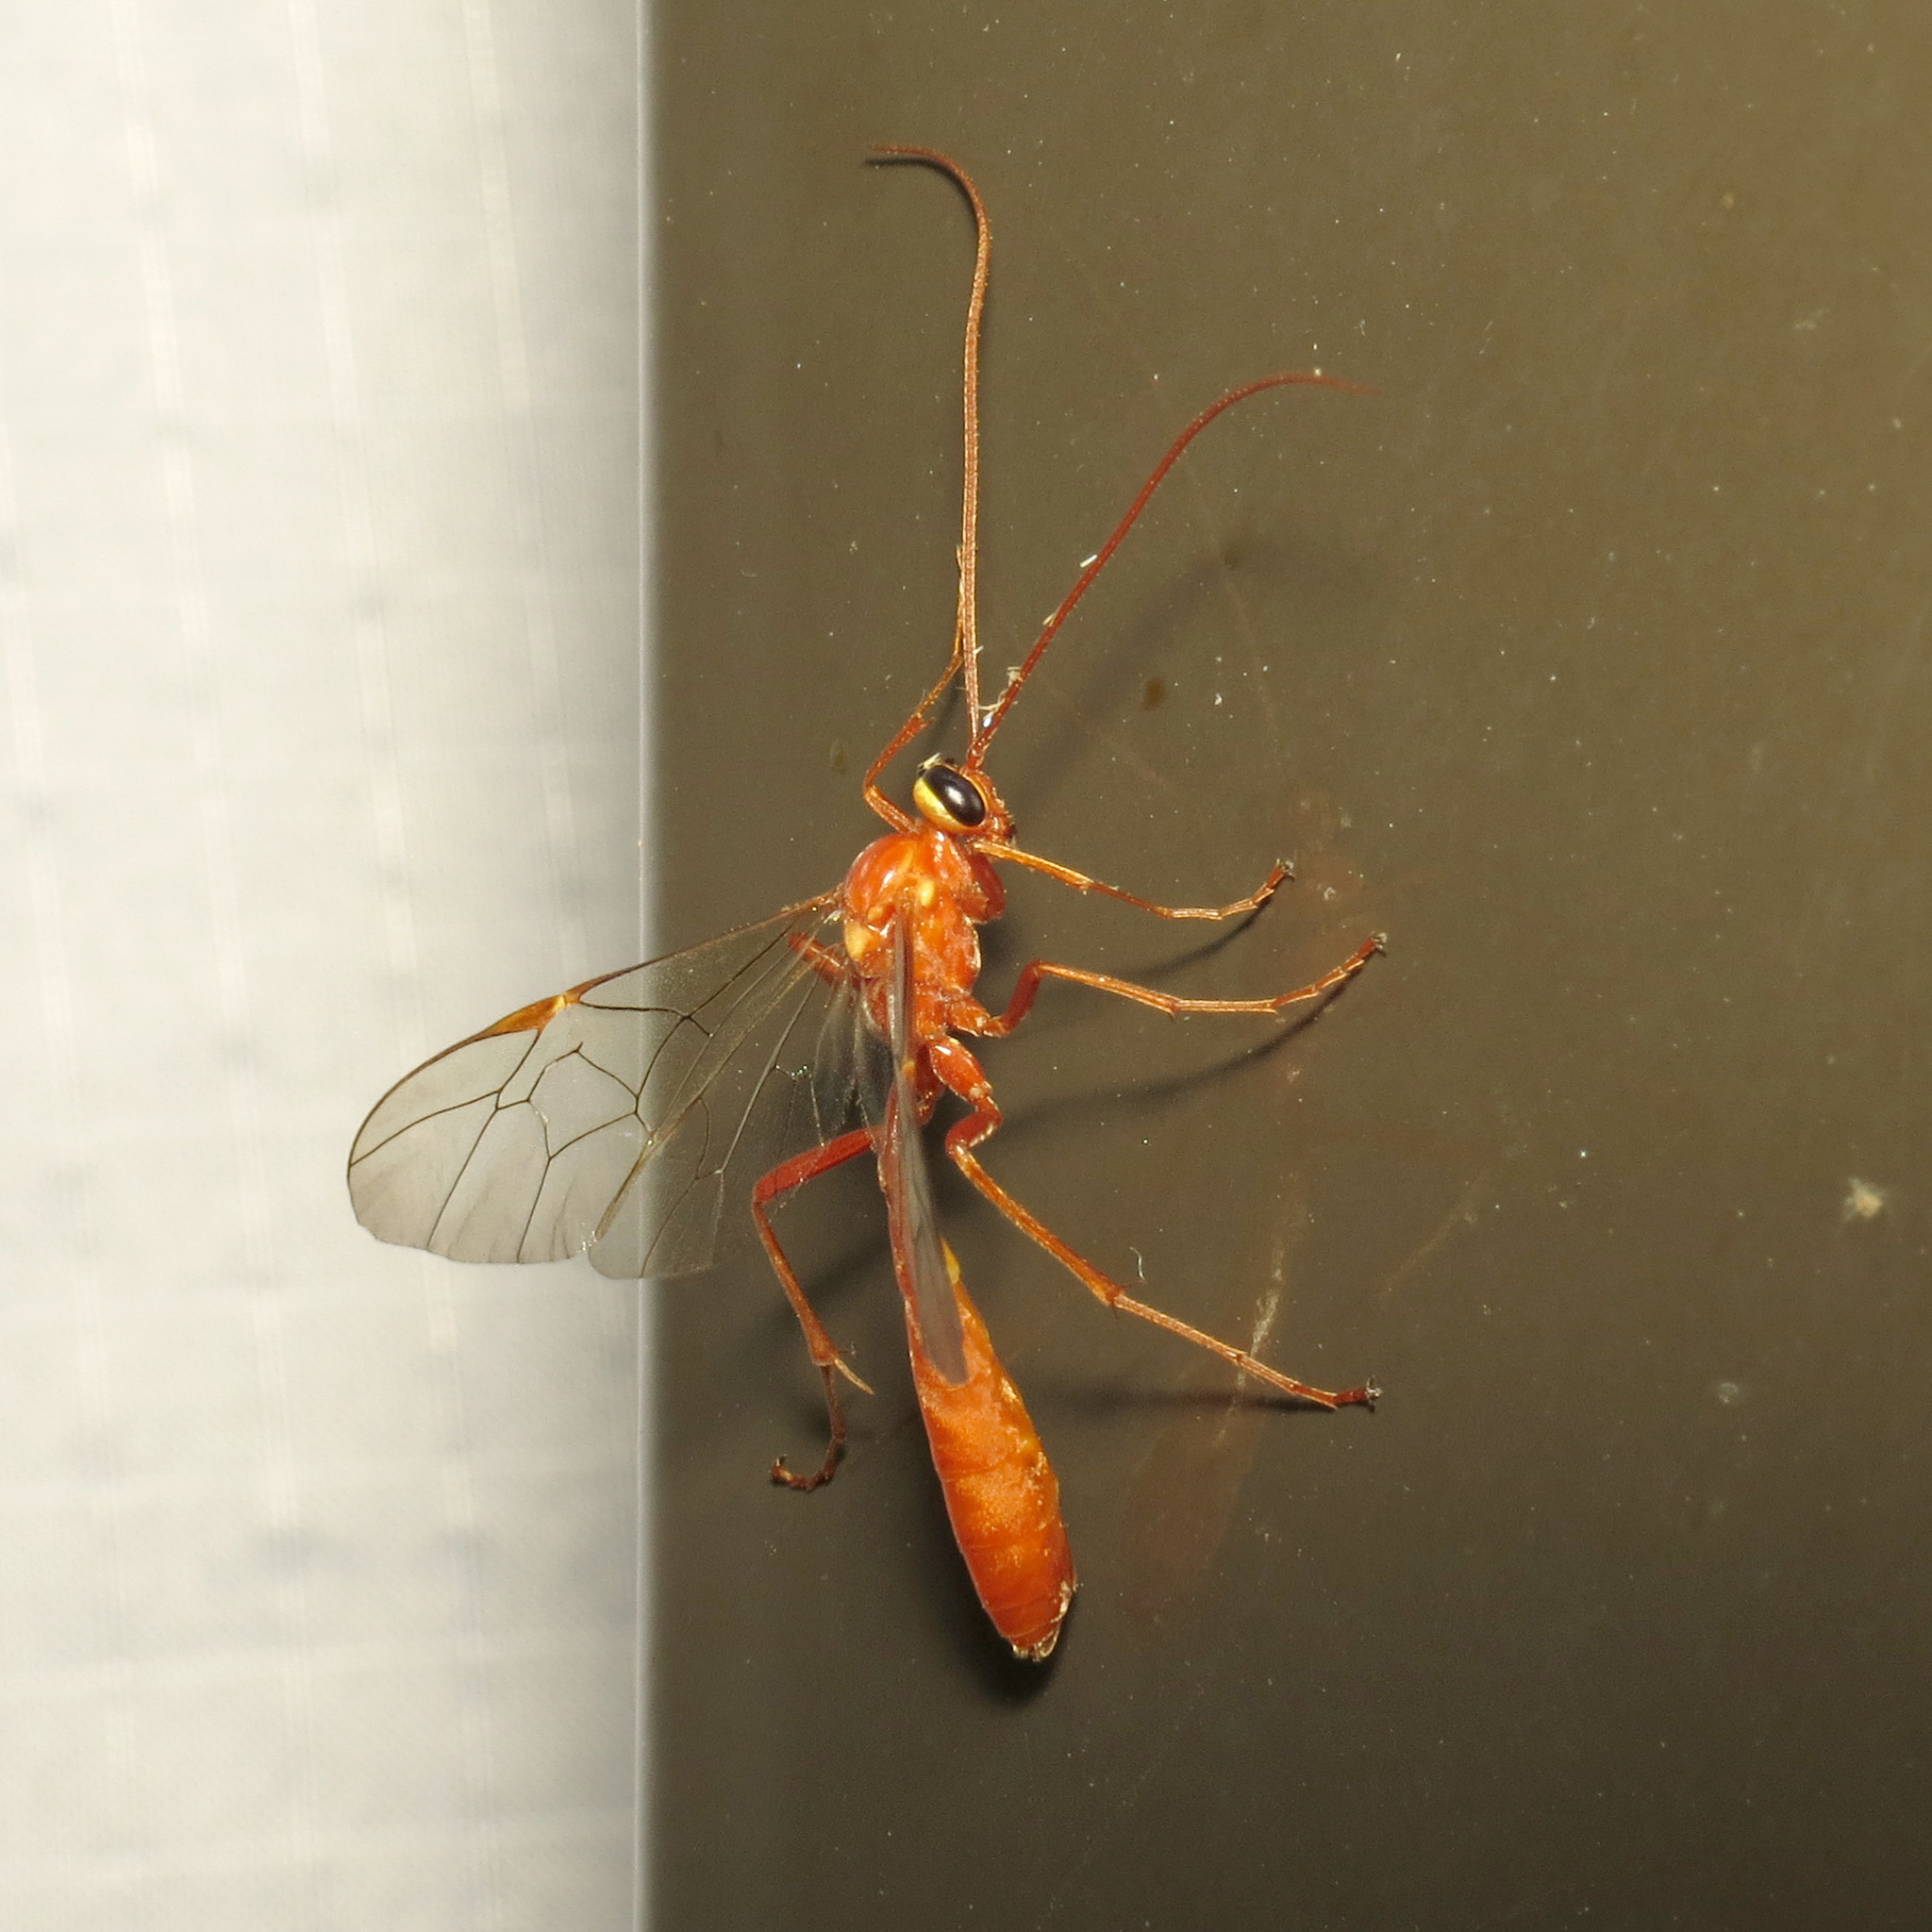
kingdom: Animalia
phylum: Arthropoda
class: Insecta
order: Hymenoptera
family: Ichneumonidae
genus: Ophion
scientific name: Ophion
